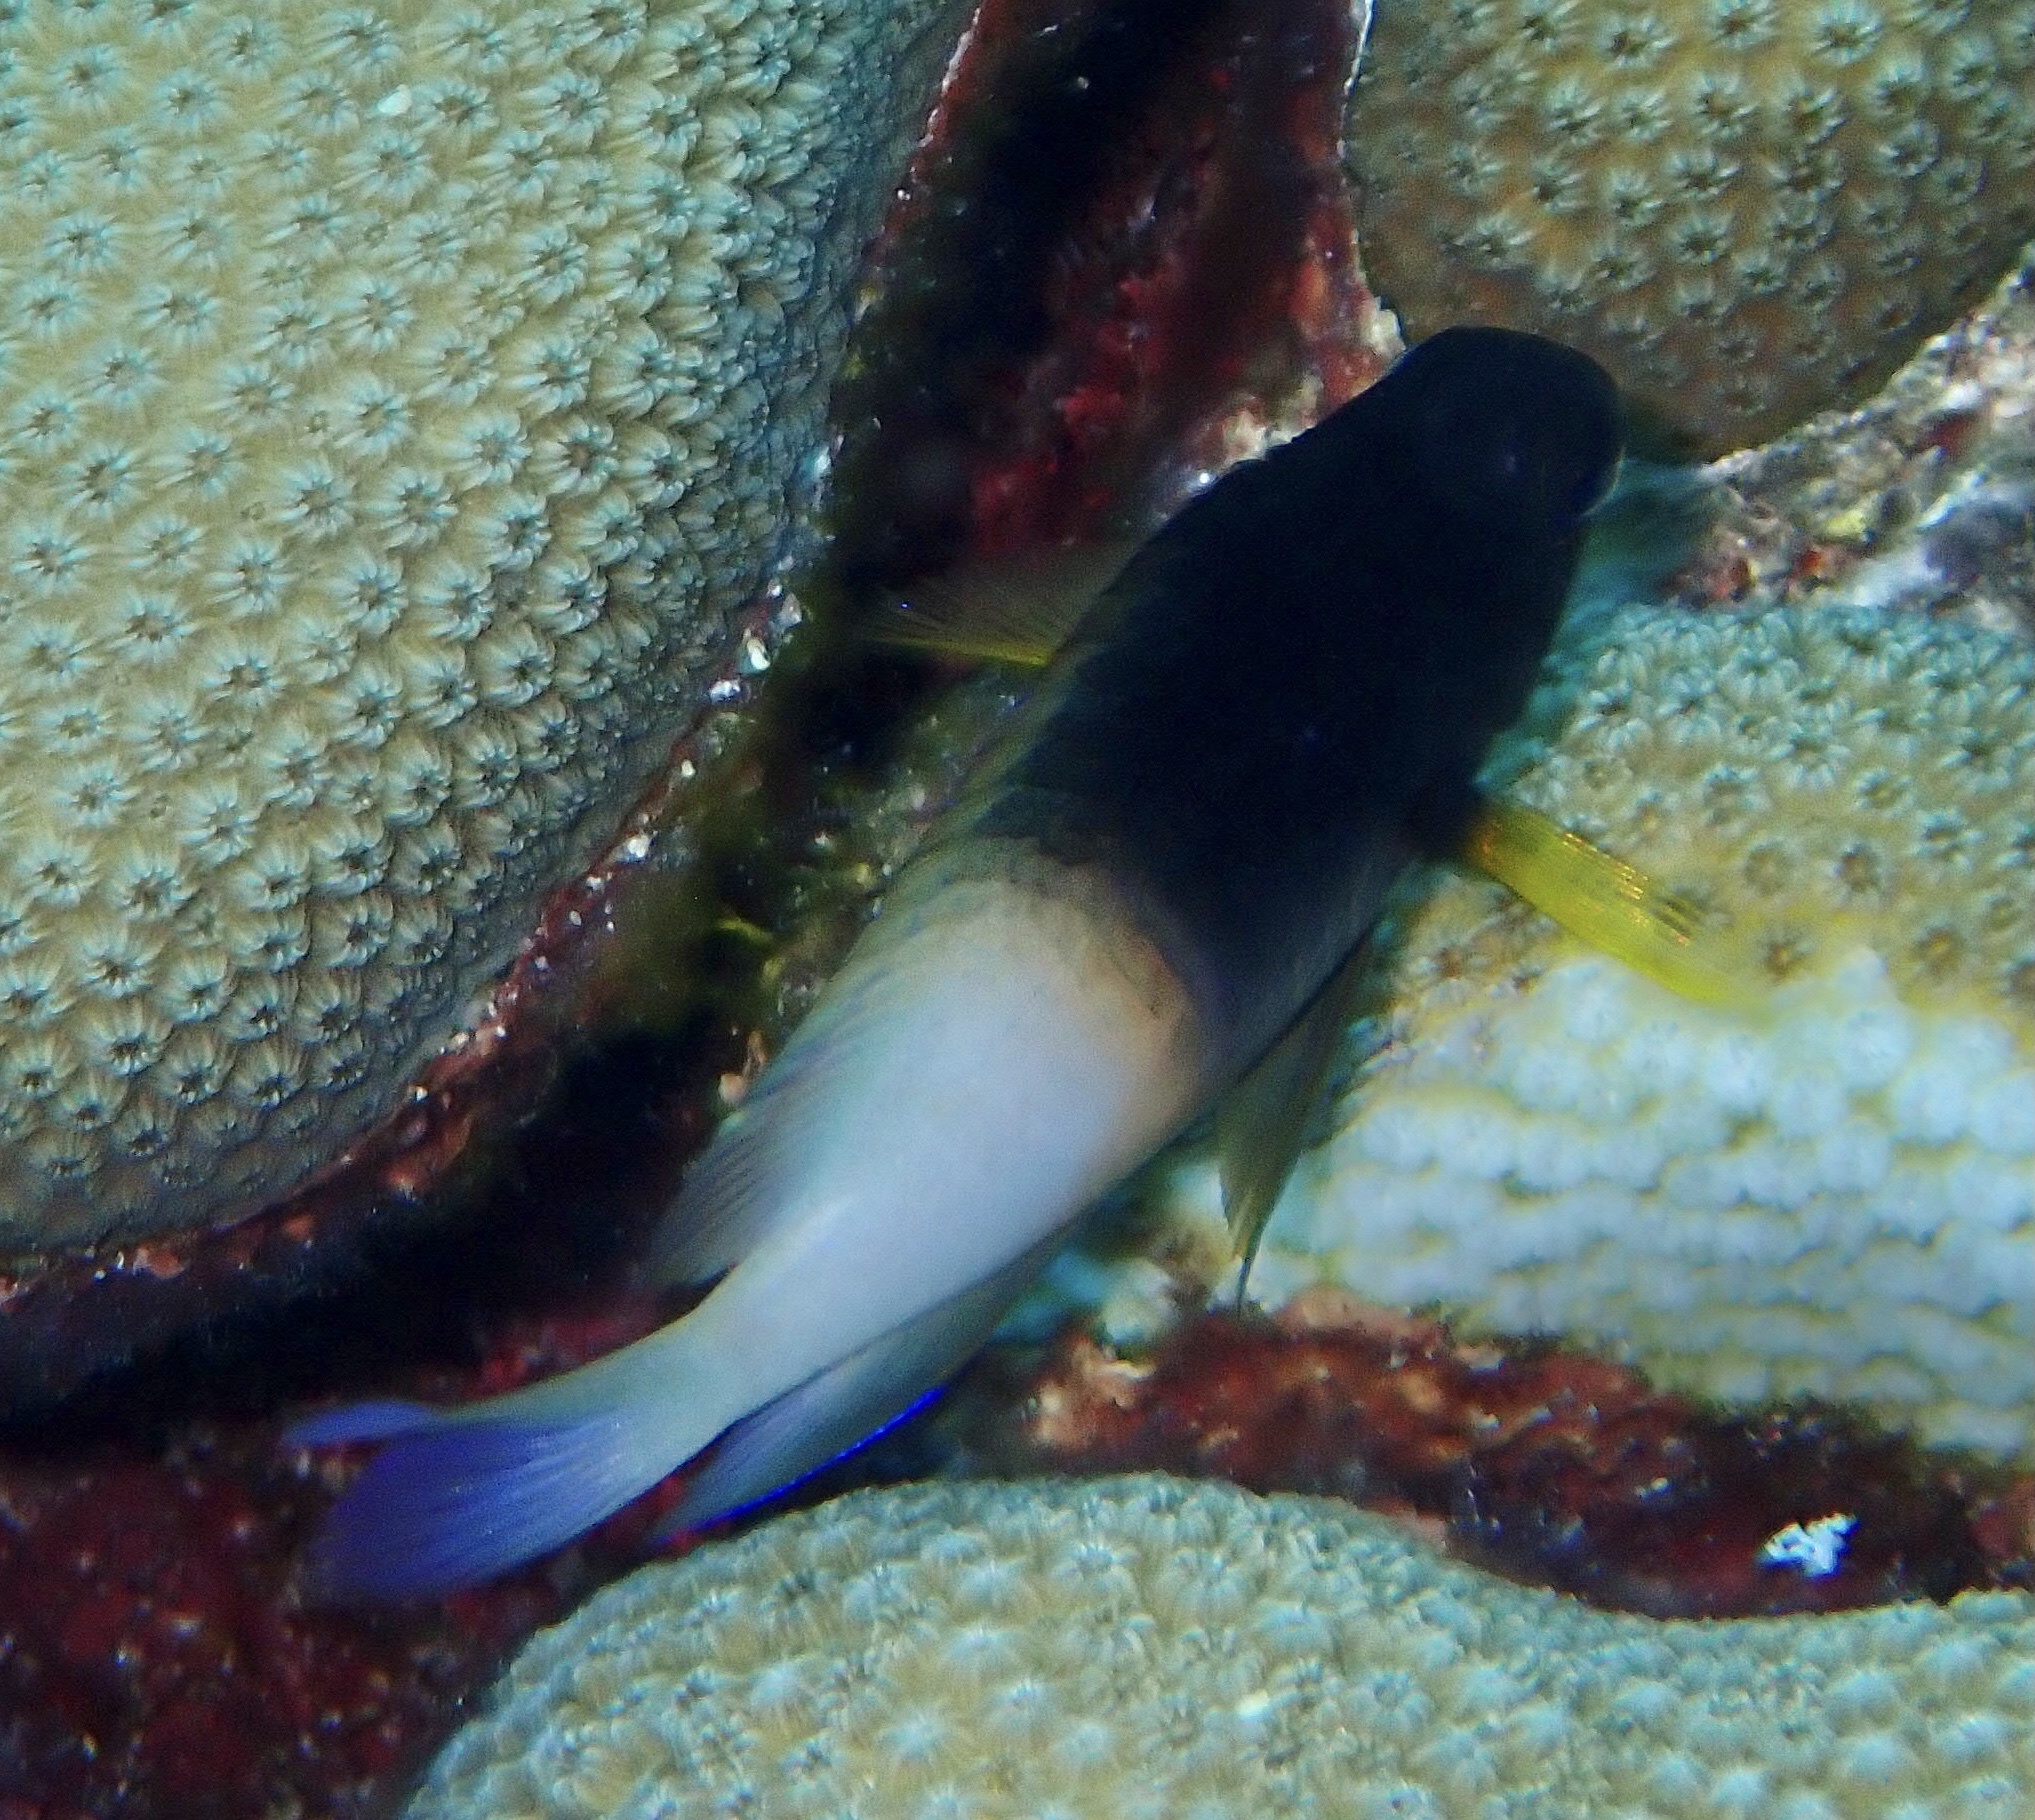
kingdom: Animalia
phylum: Chordata
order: Perciformes
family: Pomacentridae
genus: Stegastes
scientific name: Stegastes partitus
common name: Bicolor damselfish
